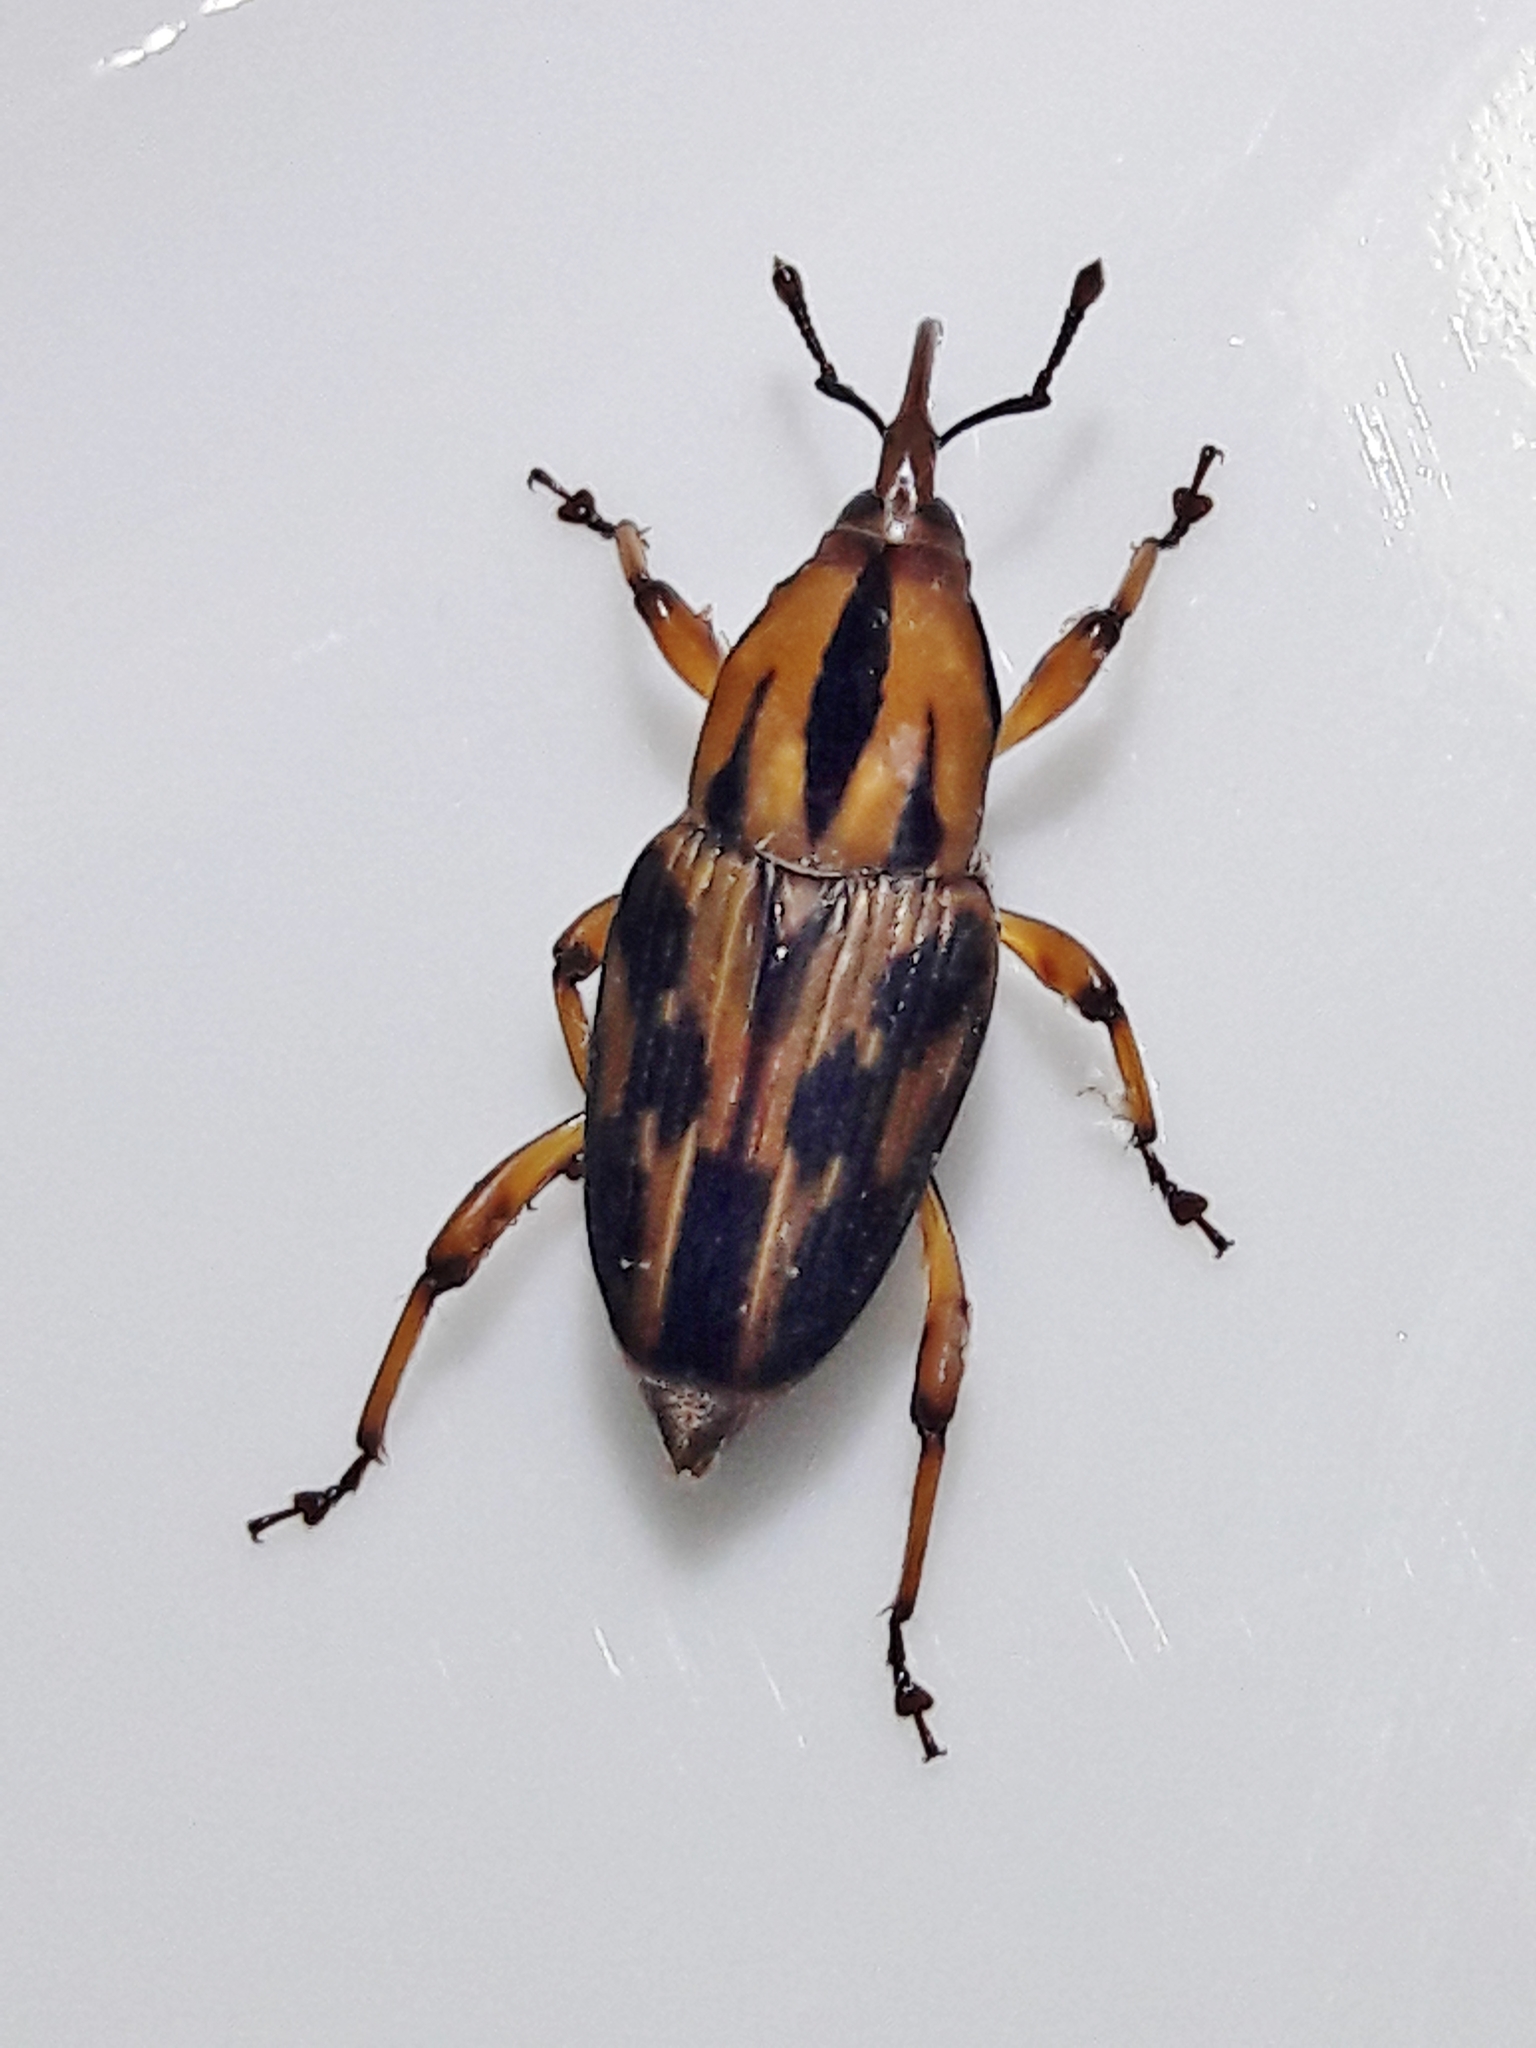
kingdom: Animalia
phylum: Arthropoda
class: Insecta
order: Coleoptera
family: Dryophthoridae
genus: Metamasius
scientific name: Metamasius hemipterus
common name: Weevil
